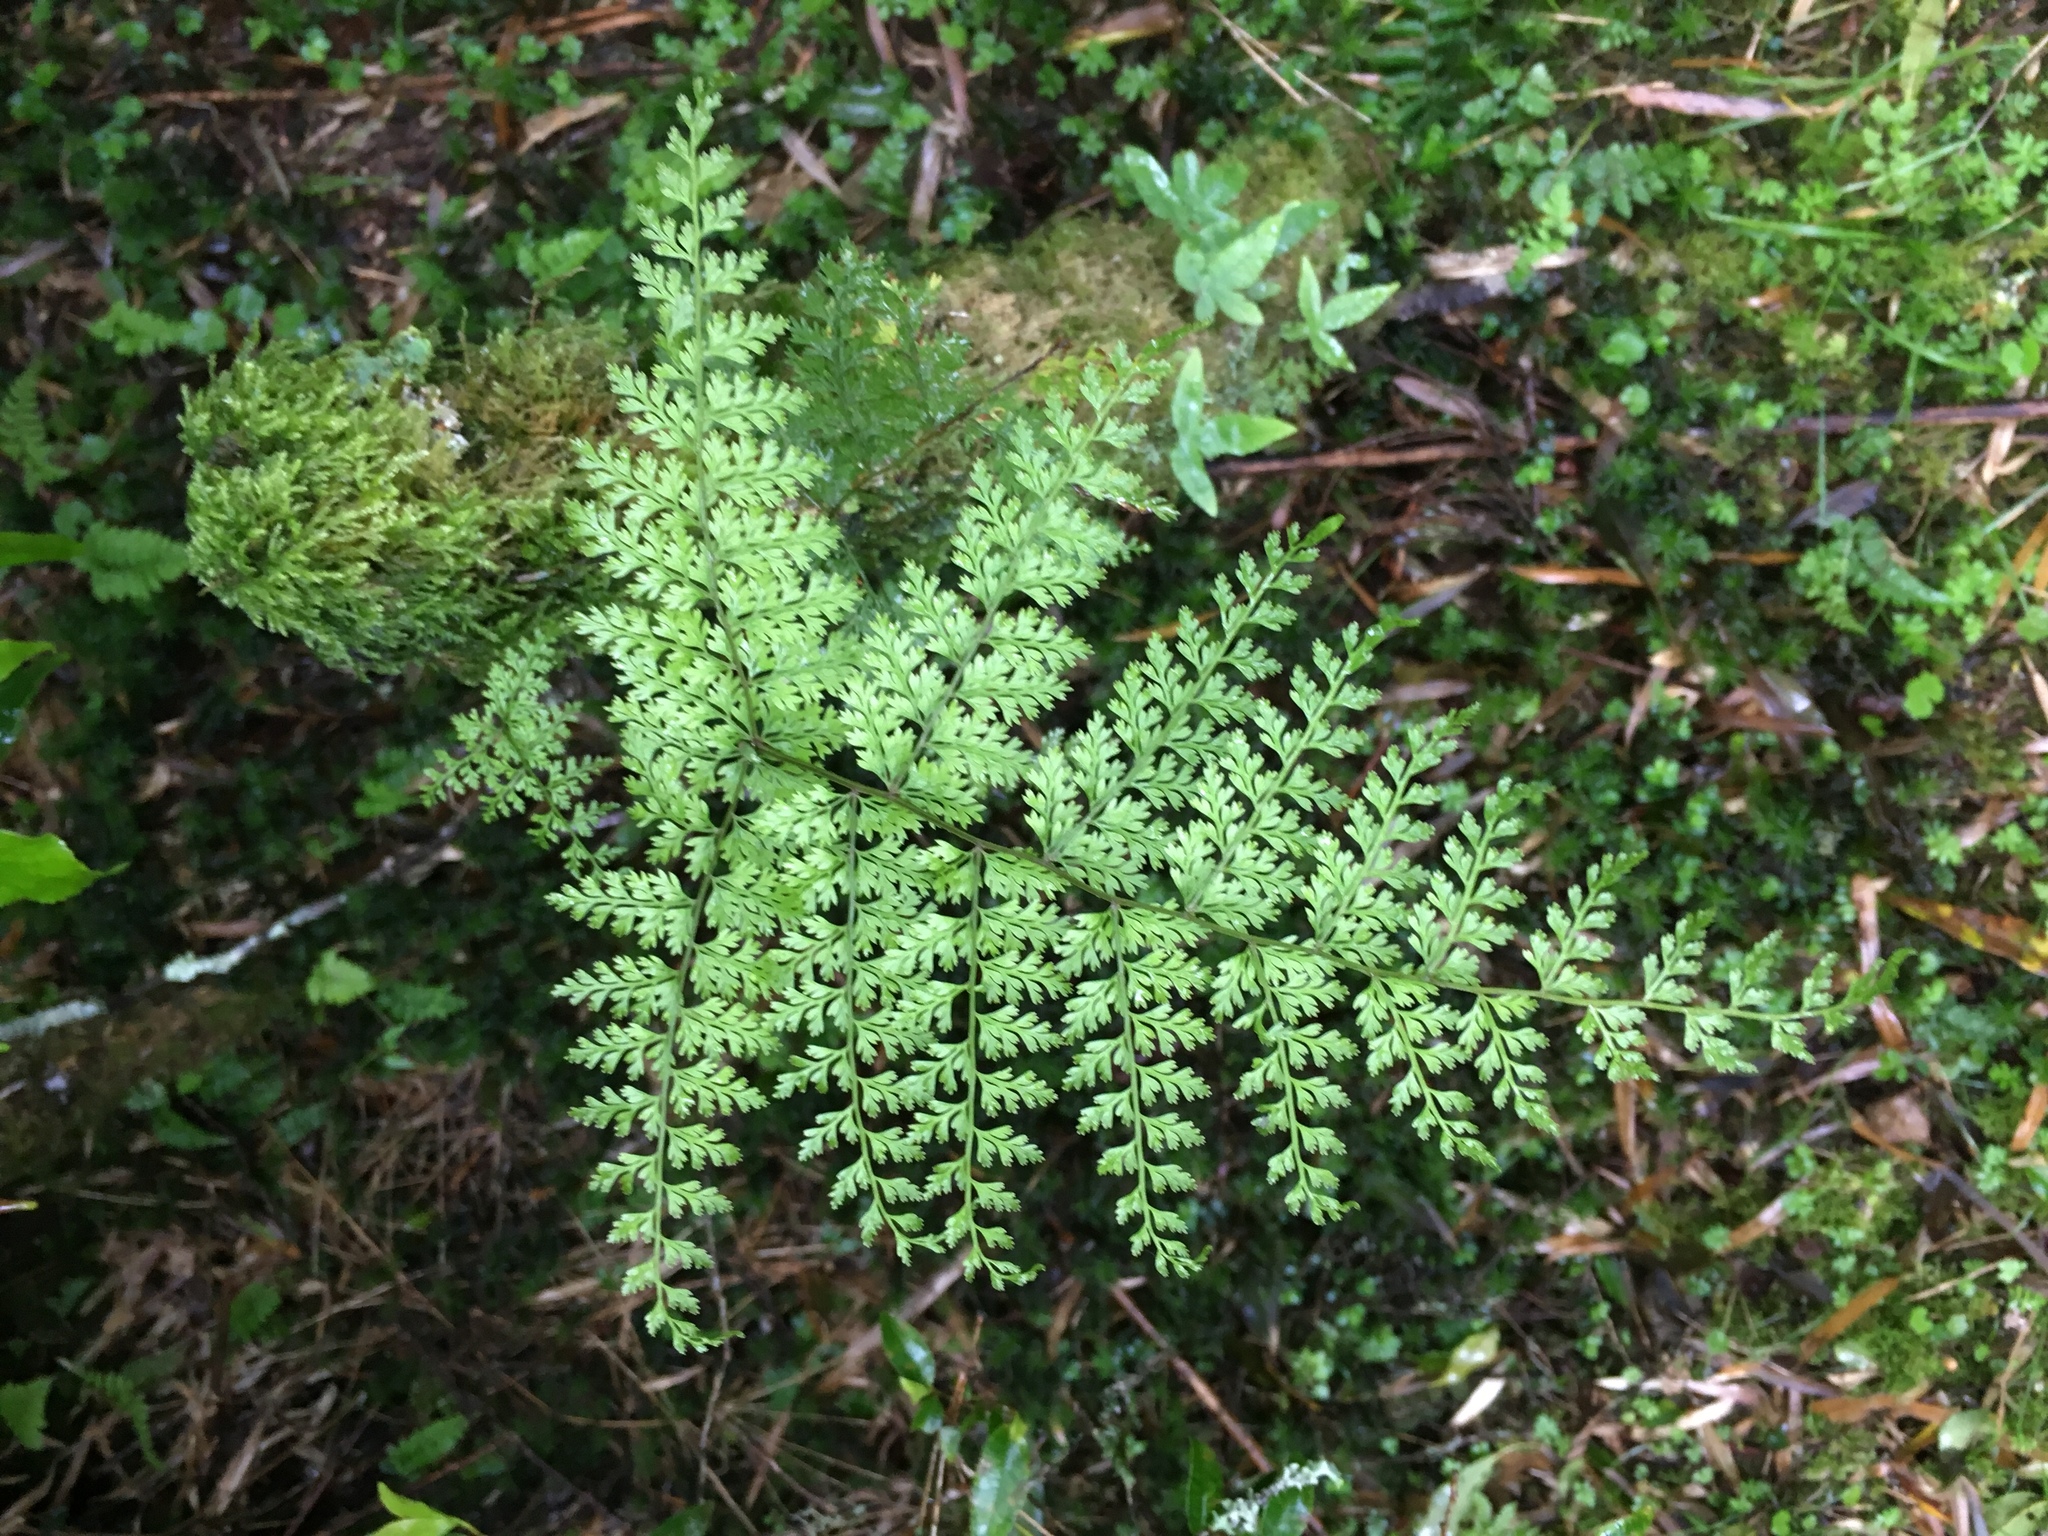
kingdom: Plantae
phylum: Tracheophyta
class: Polypodiopsida
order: Polypodiales
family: Davalliaceae
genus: Davallia
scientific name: Davallia perdurans
